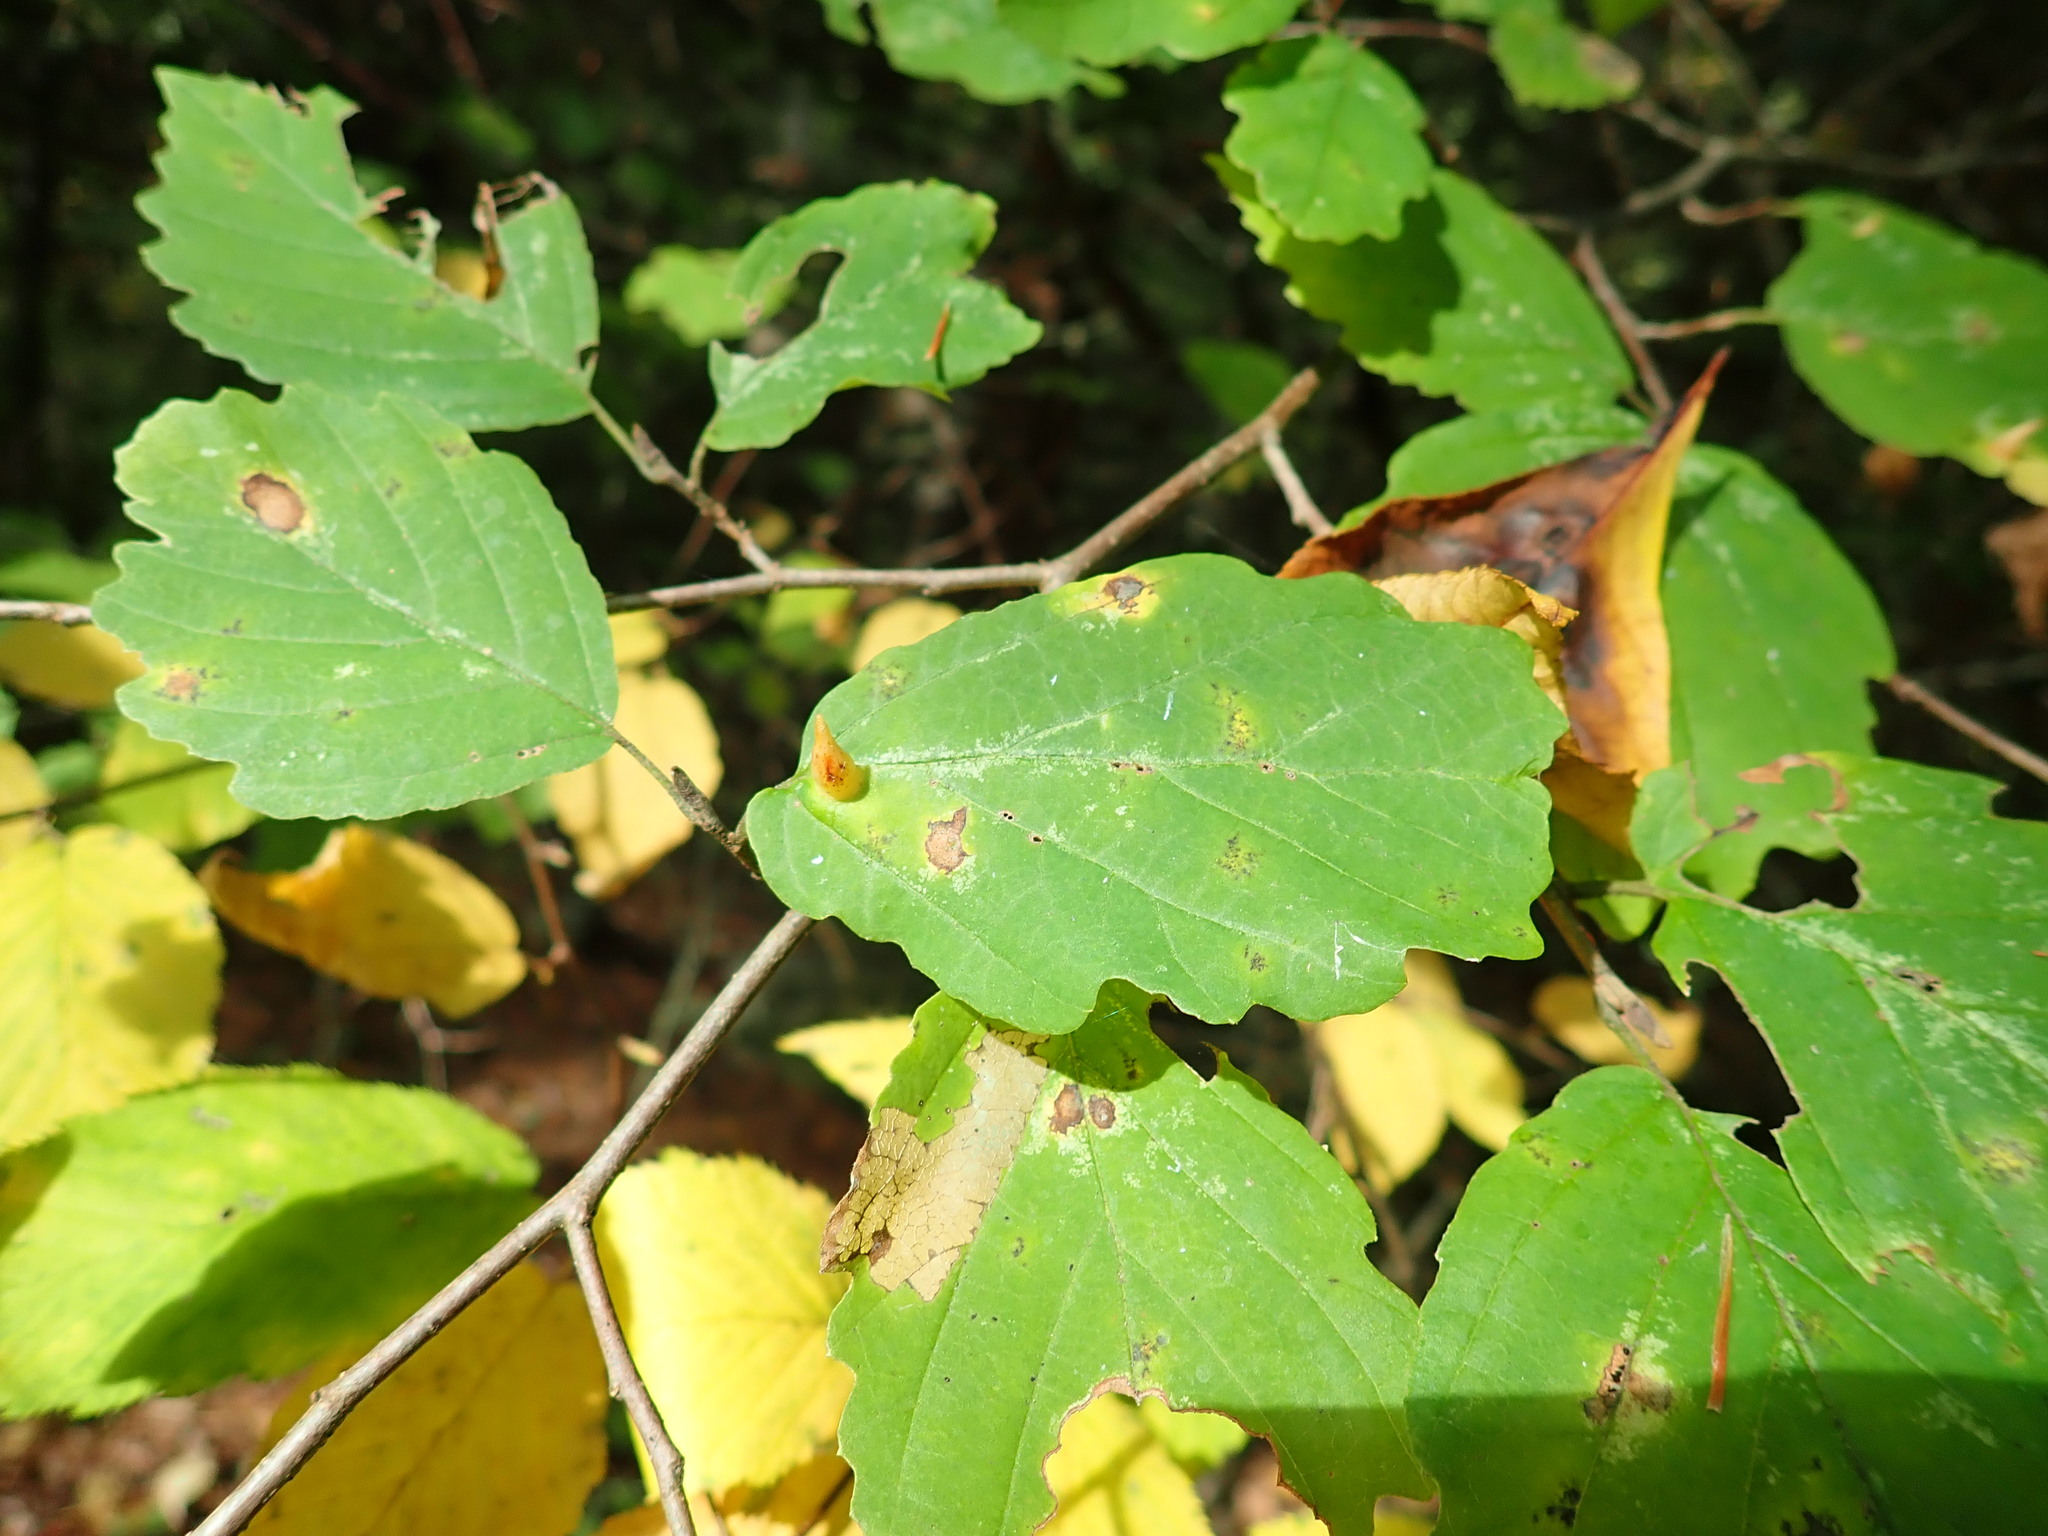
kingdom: Animalia
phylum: Arthropoda
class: Insecta
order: Hemiptera
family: Aphididae
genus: Hormaphis
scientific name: Hormaphis hamamelidis
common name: Witch-hazel cone gall aphid
